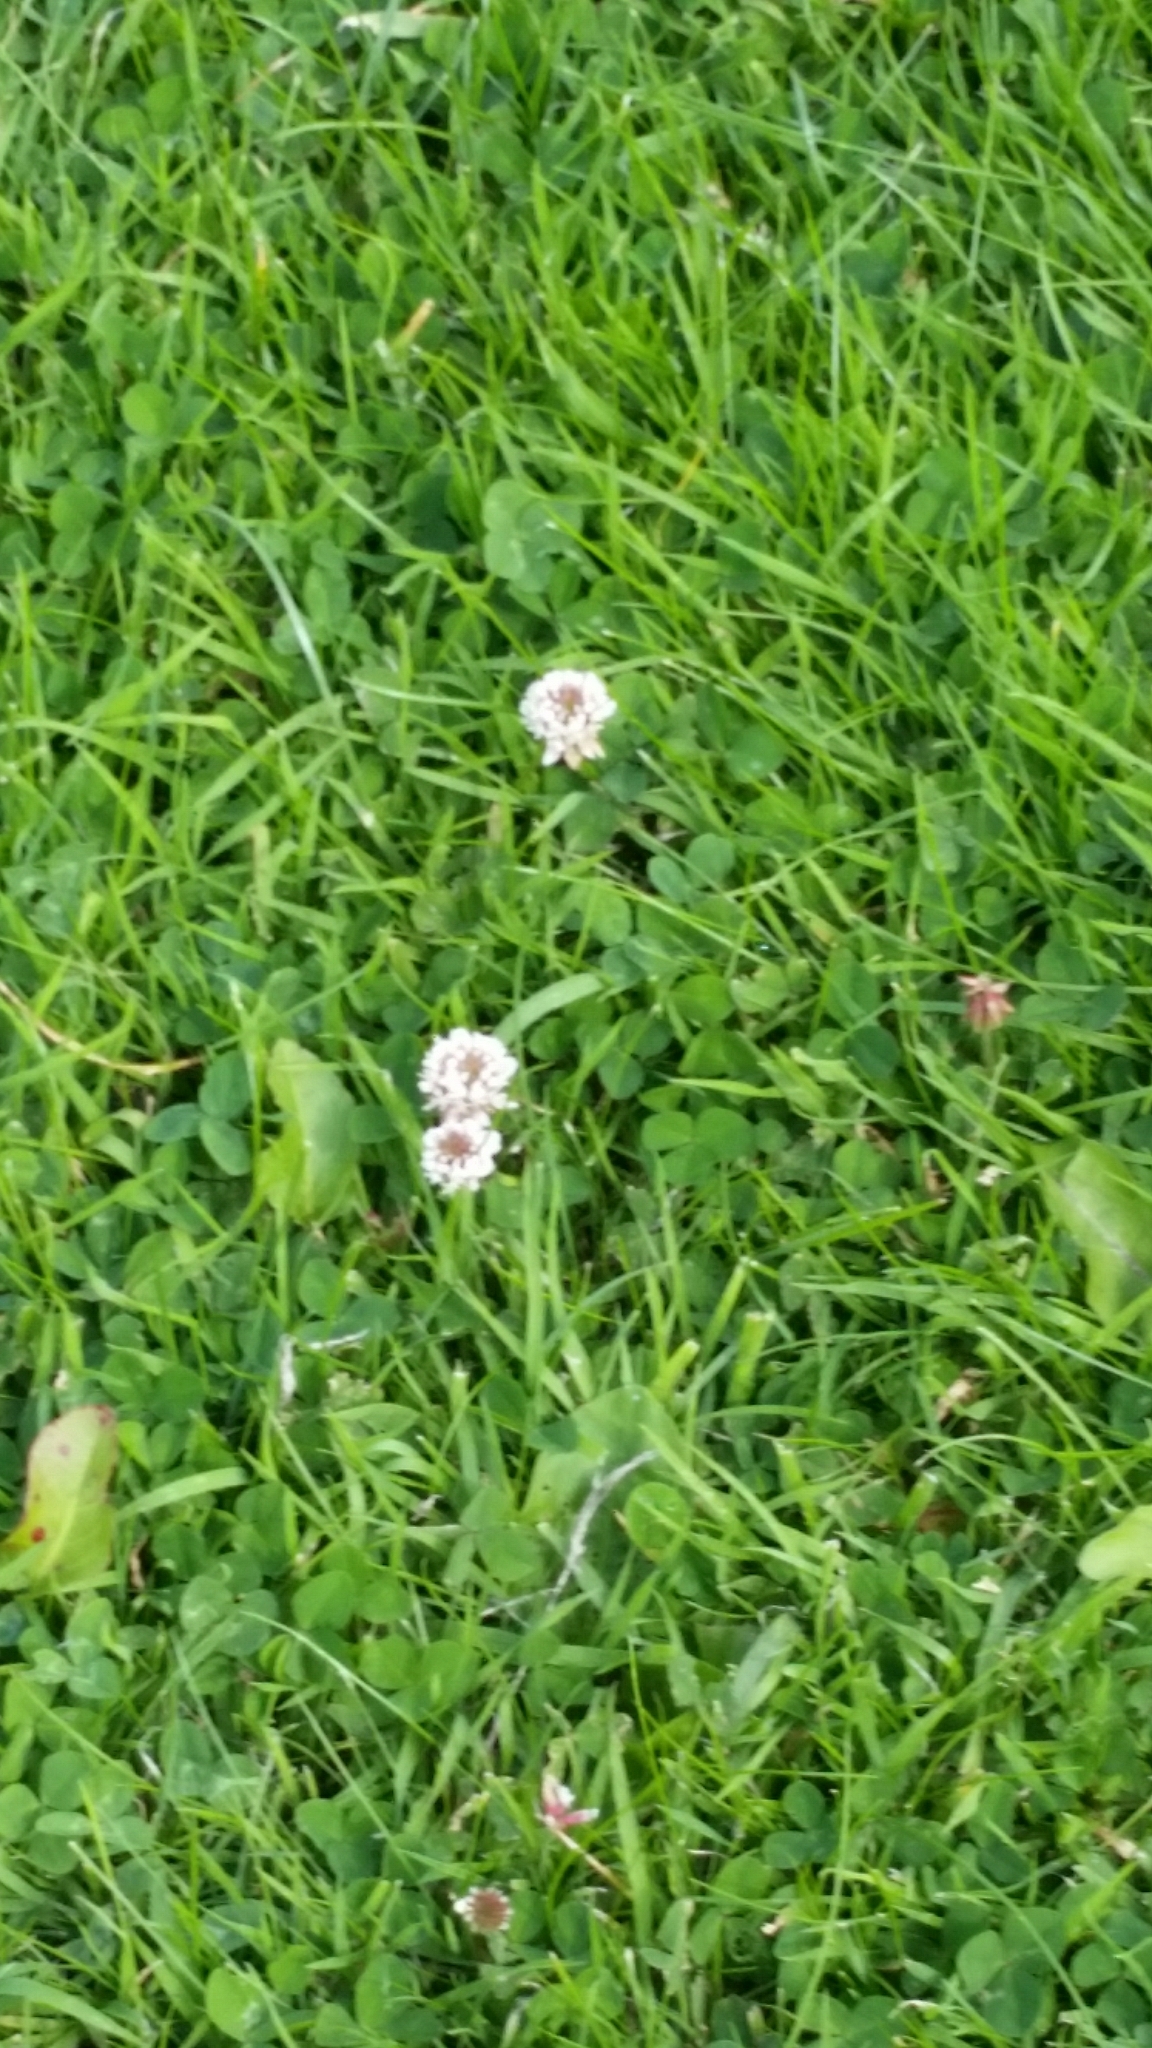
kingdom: Plantae
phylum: Tracheophyta
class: Magnoliopsida
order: Fabales
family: Fabaceae
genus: Trifolium
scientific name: Trifolium repens
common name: White clover
